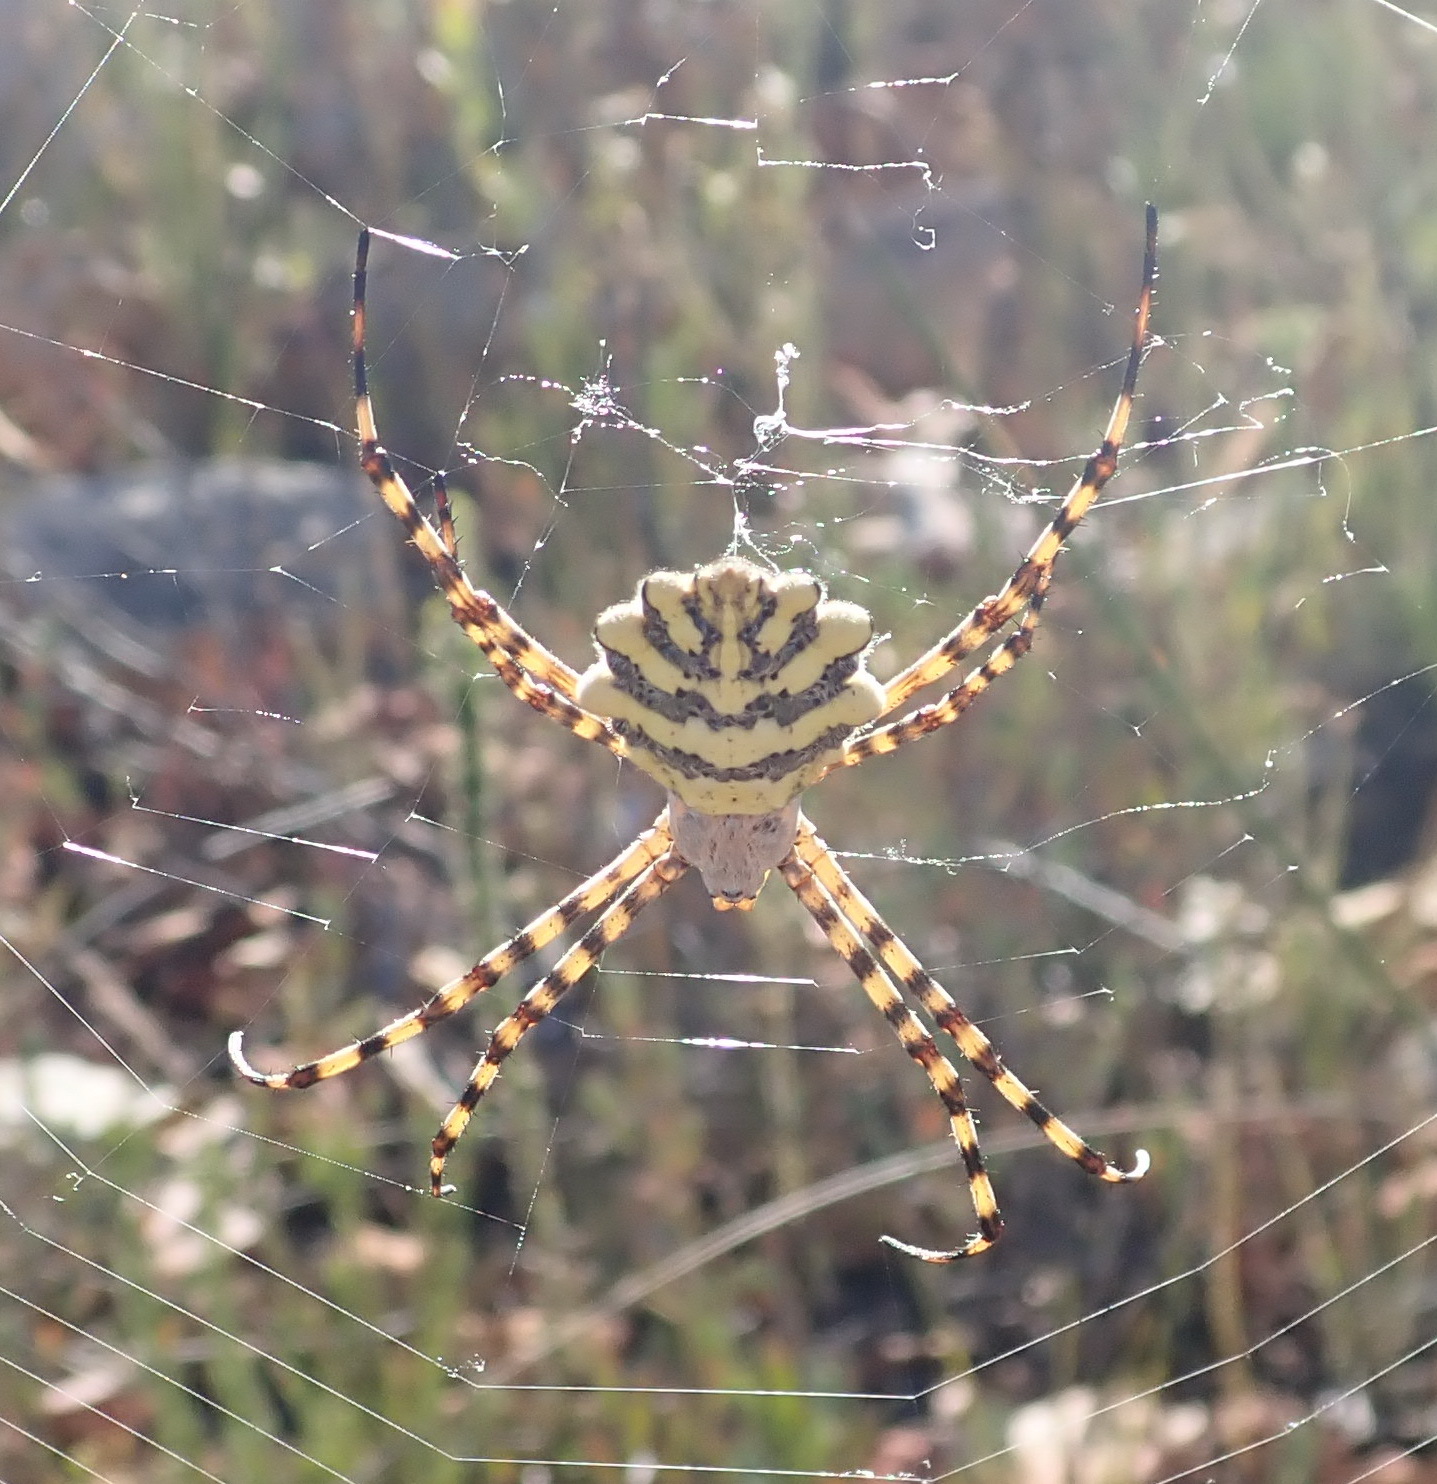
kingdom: Animalia
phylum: Arthropoda
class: Arachnida
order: Araneae
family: Araneidae
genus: Argiope
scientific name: Argiope australis
